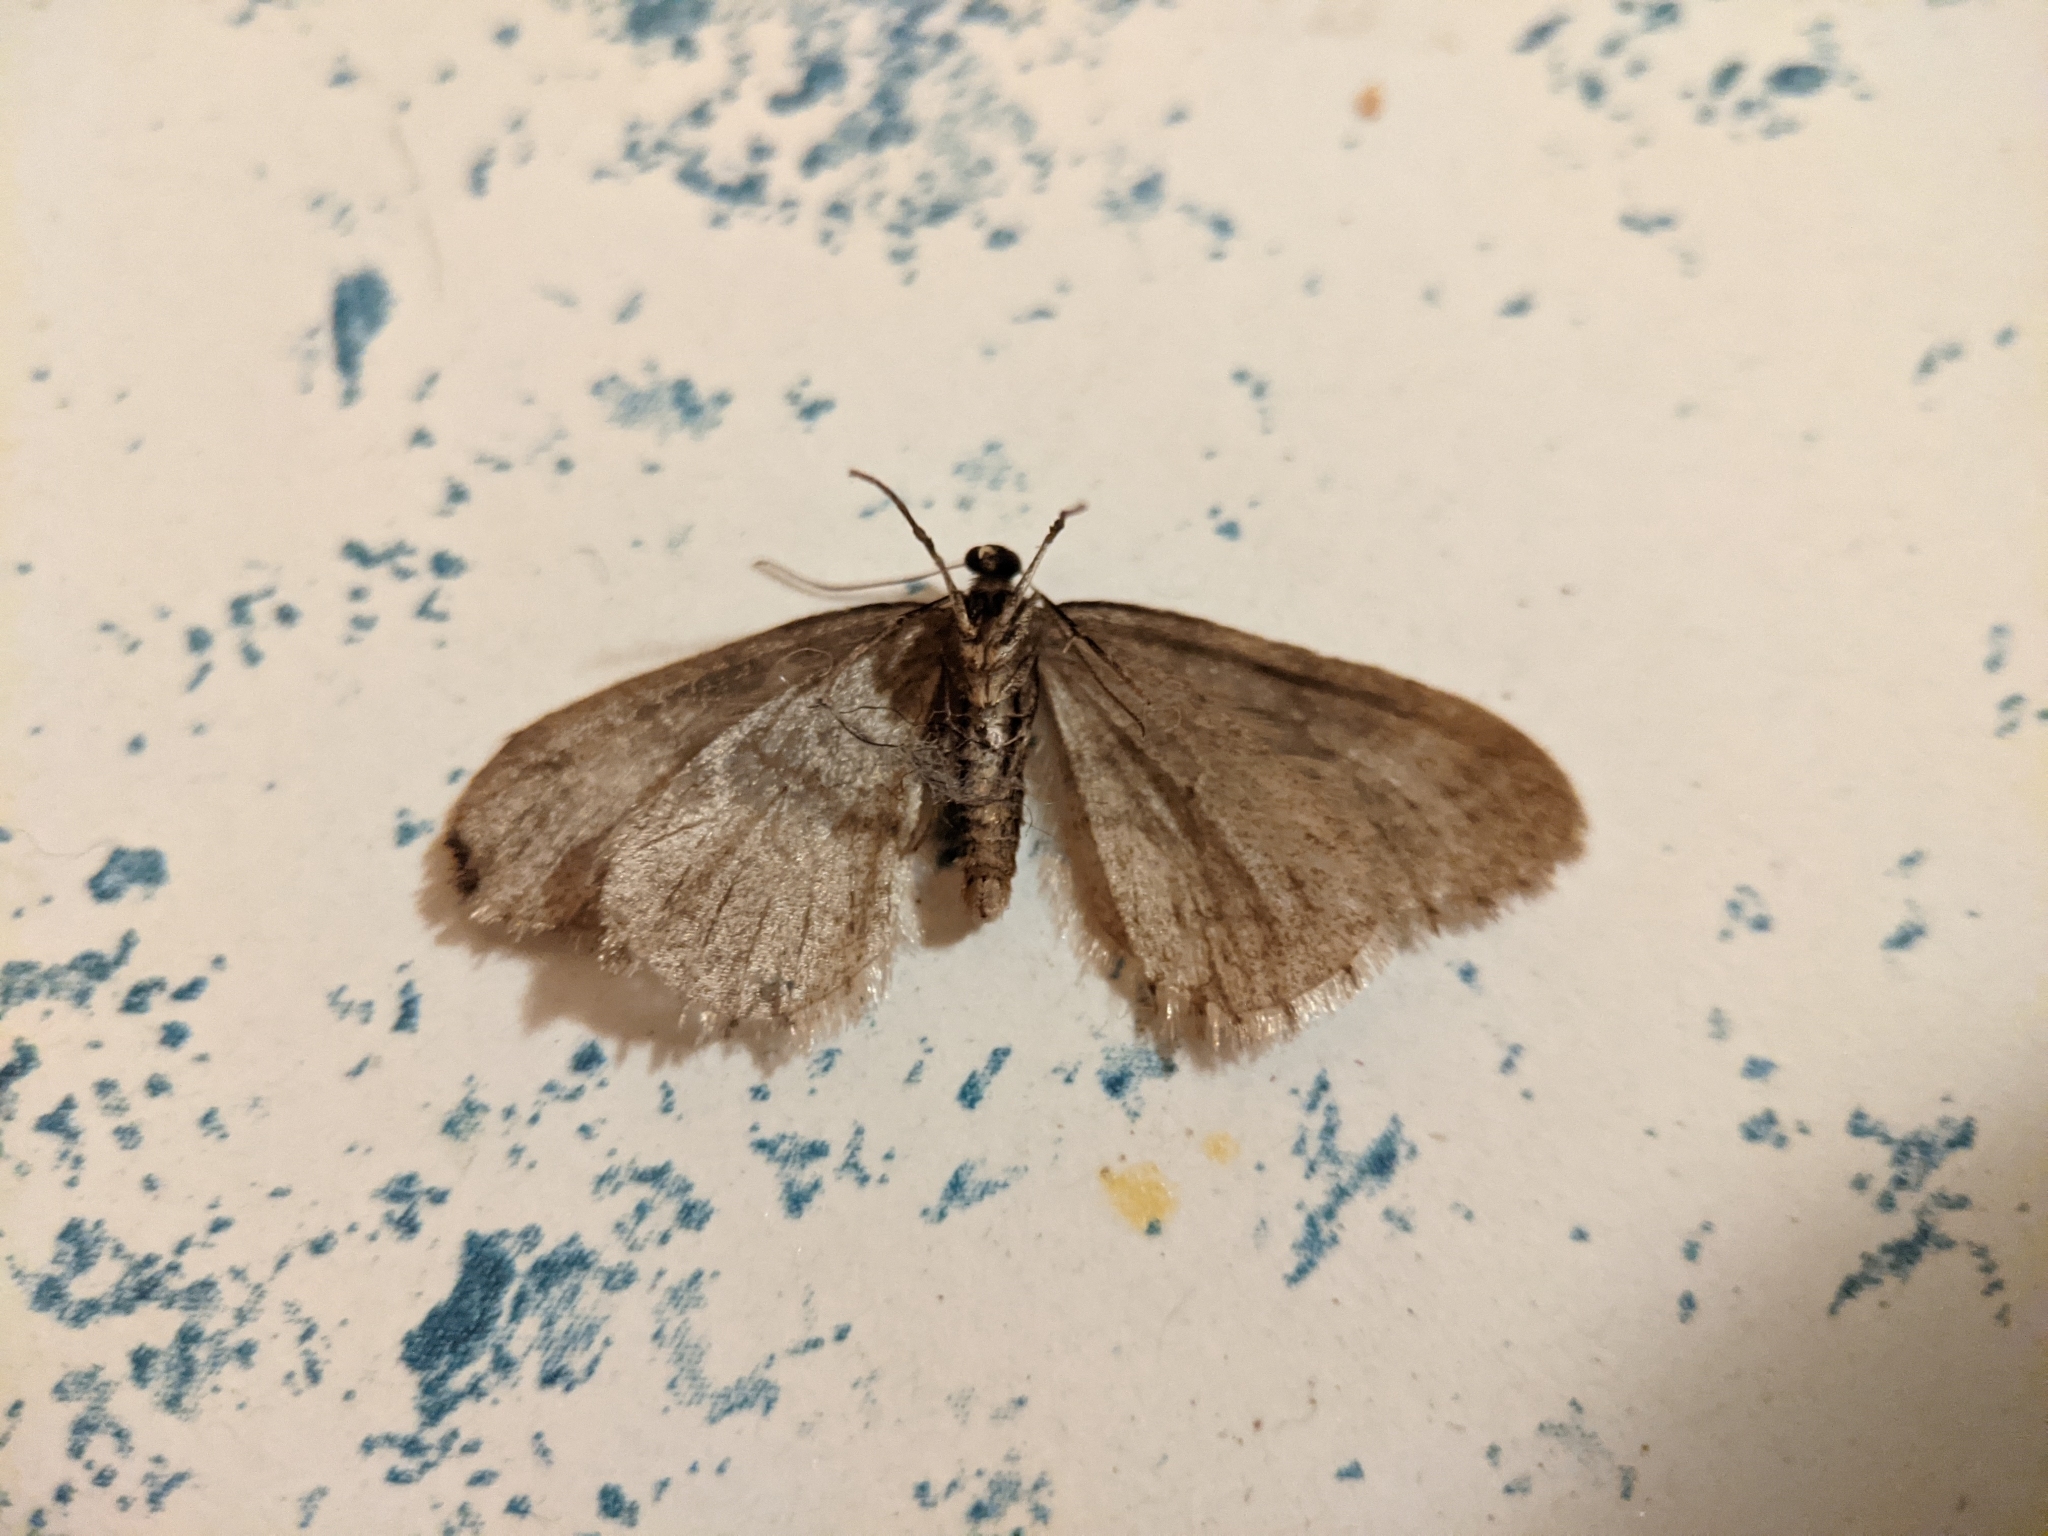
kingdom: Animalia
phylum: Arthropoda
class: Insecta
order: Lepidoptera
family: Geometridae
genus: Operophtera
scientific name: Operophtera brumata
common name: Winter moth
